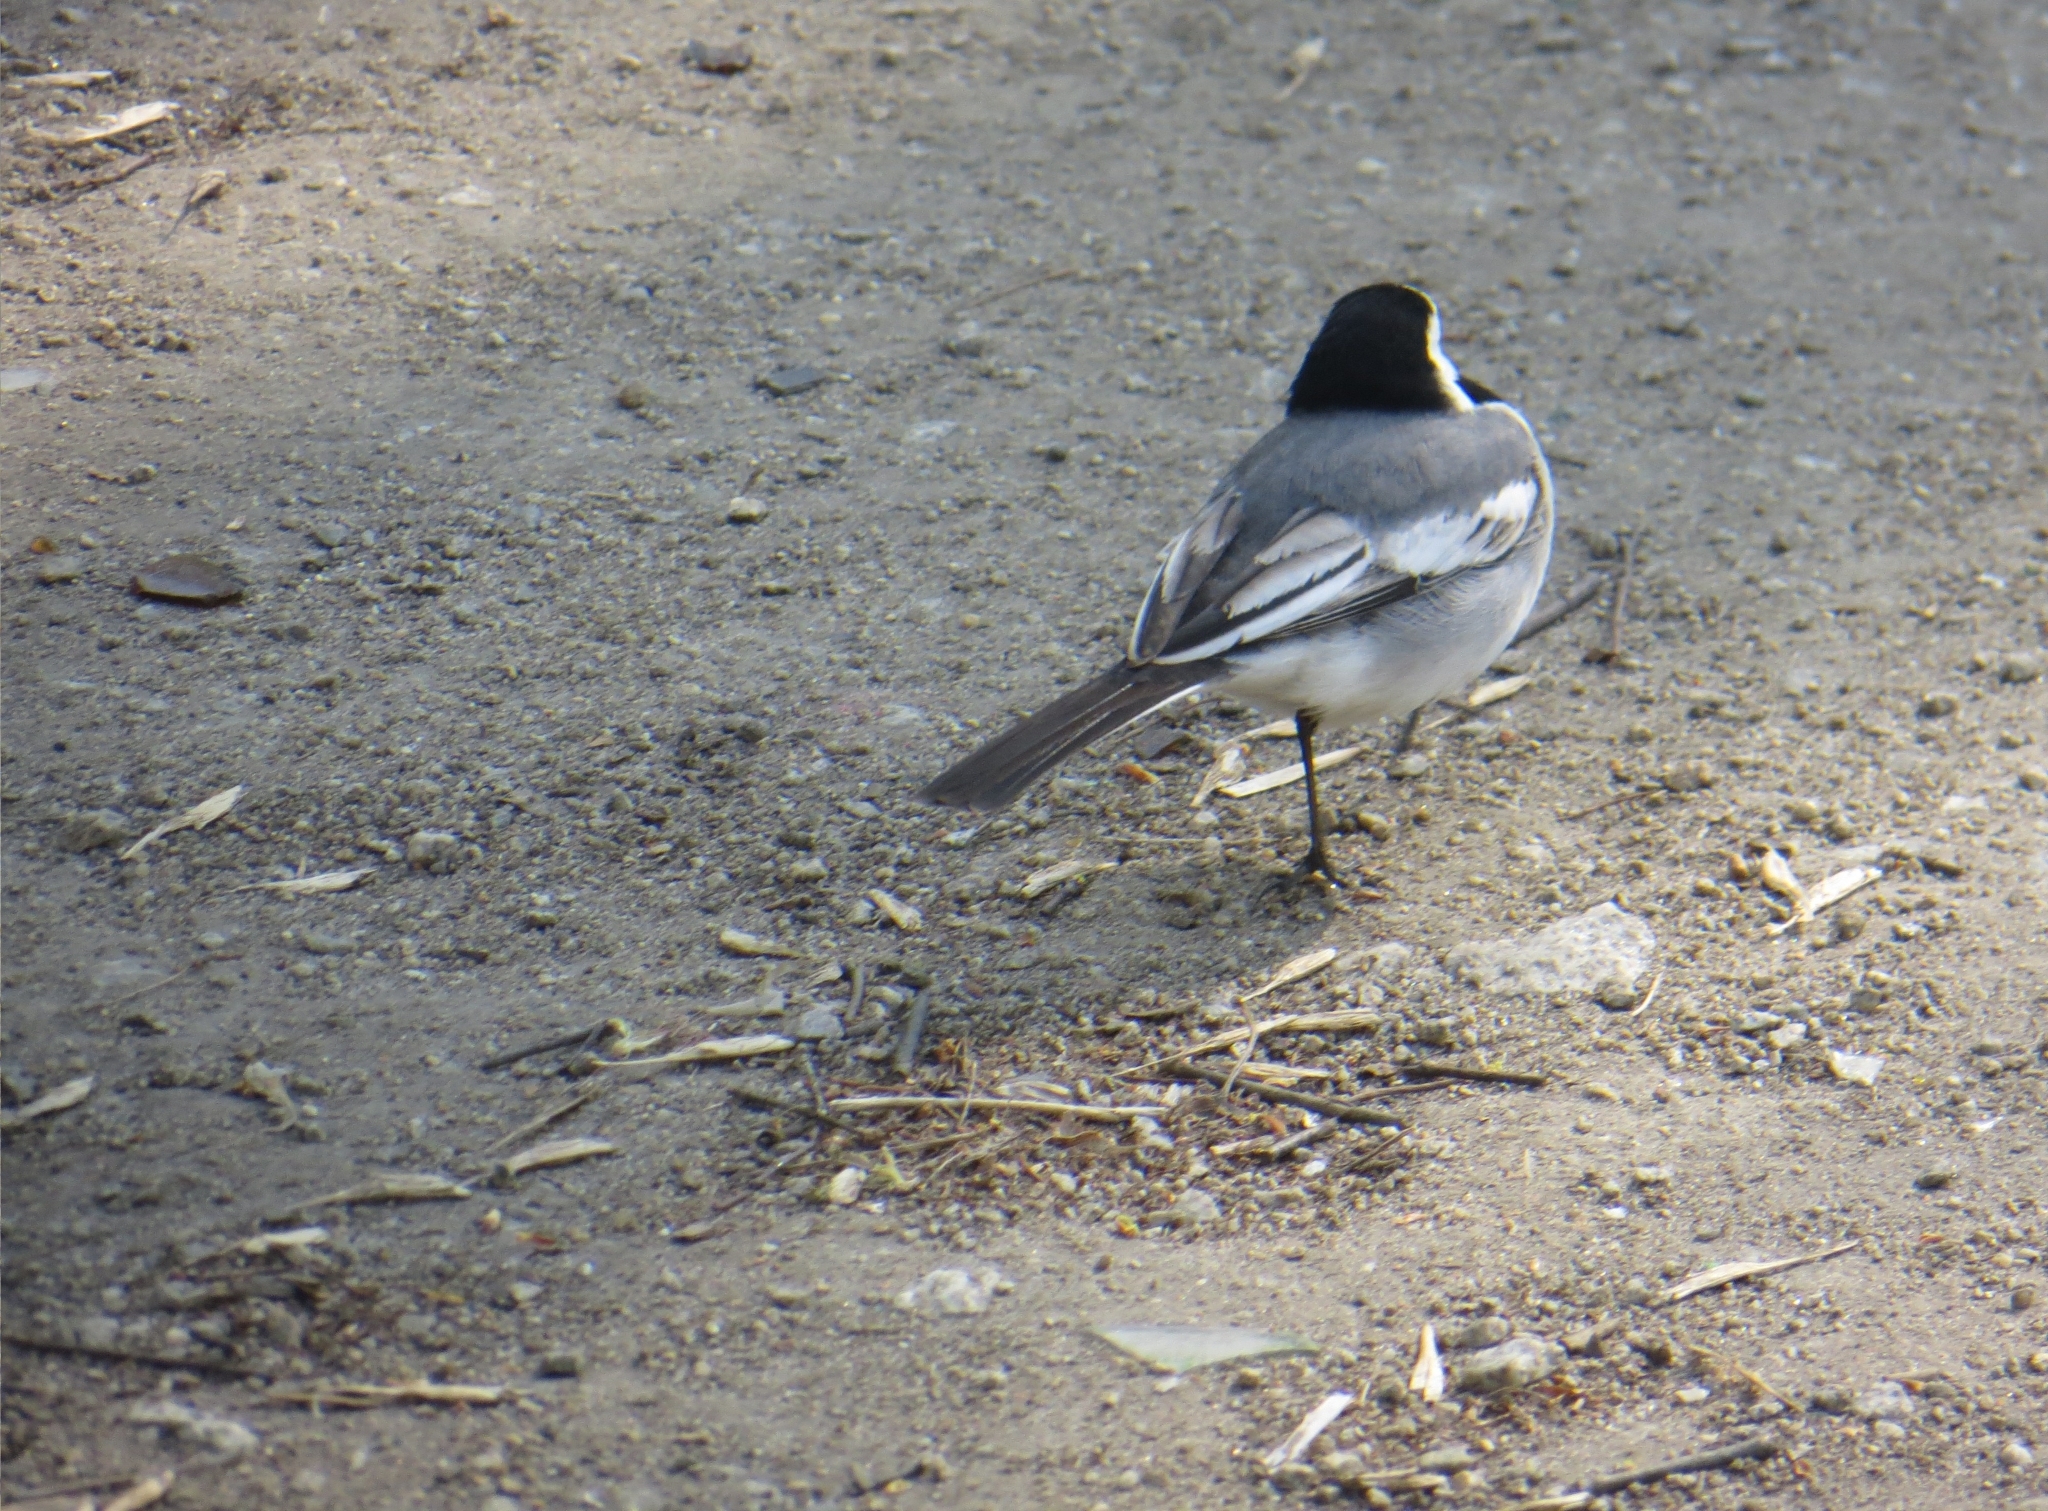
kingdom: Animalia
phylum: Chordata
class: Aves
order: Passeriformes
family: Motacillidae
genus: Motacilla
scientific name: Motacilla alba
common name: White wagtail
